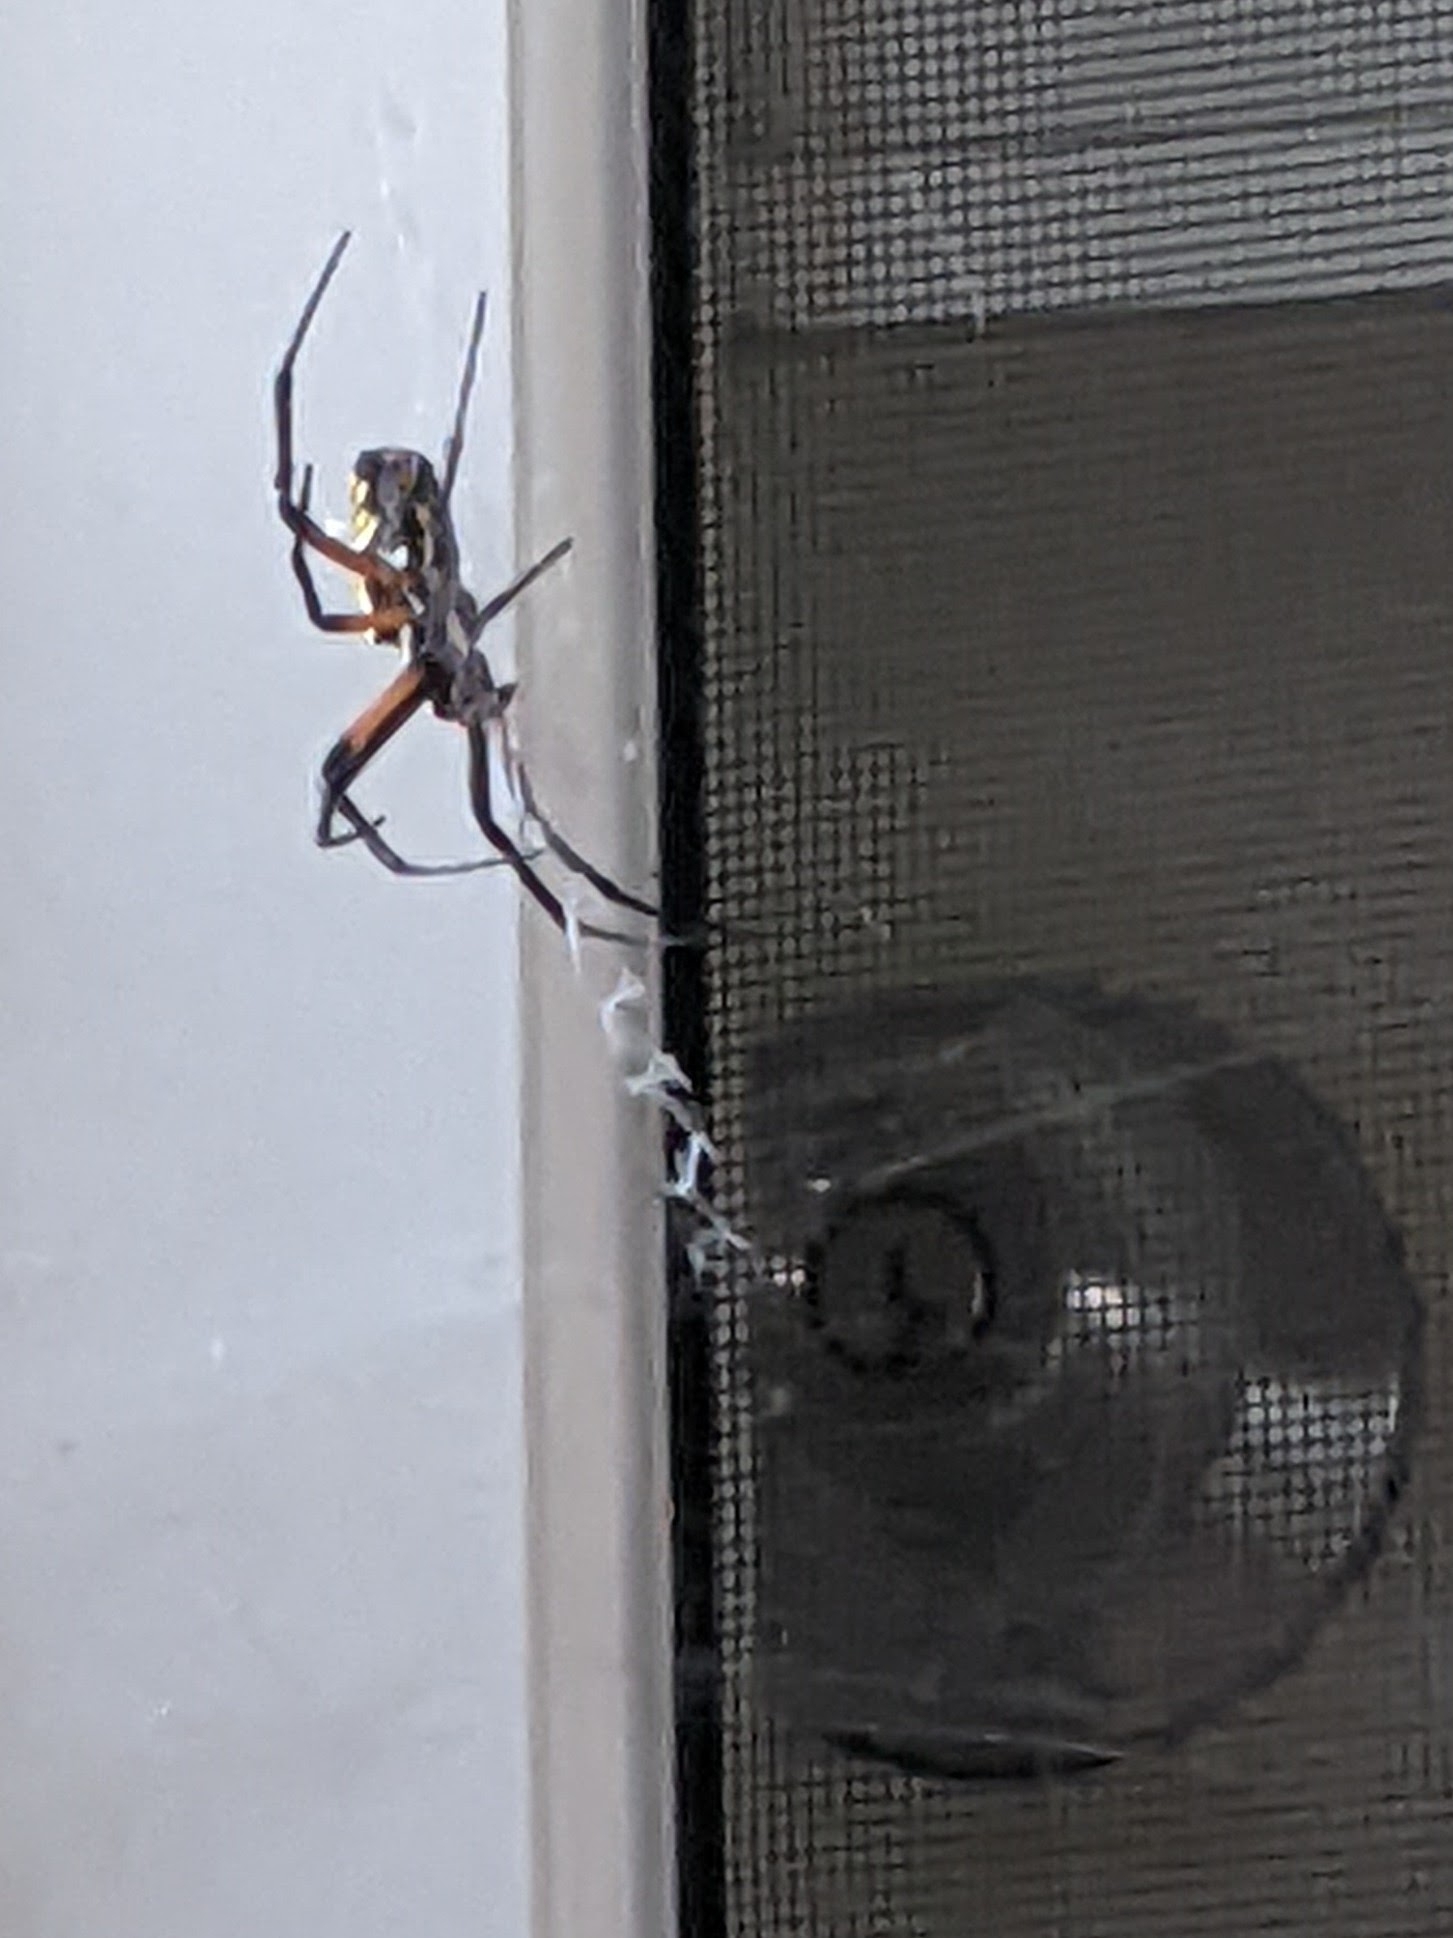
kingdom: Animalia
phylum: Arthropoda
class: Arachnida
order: Araneae
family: Araneidae
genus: Argiope
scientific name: Argiope aurantia
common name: Orb weavers
